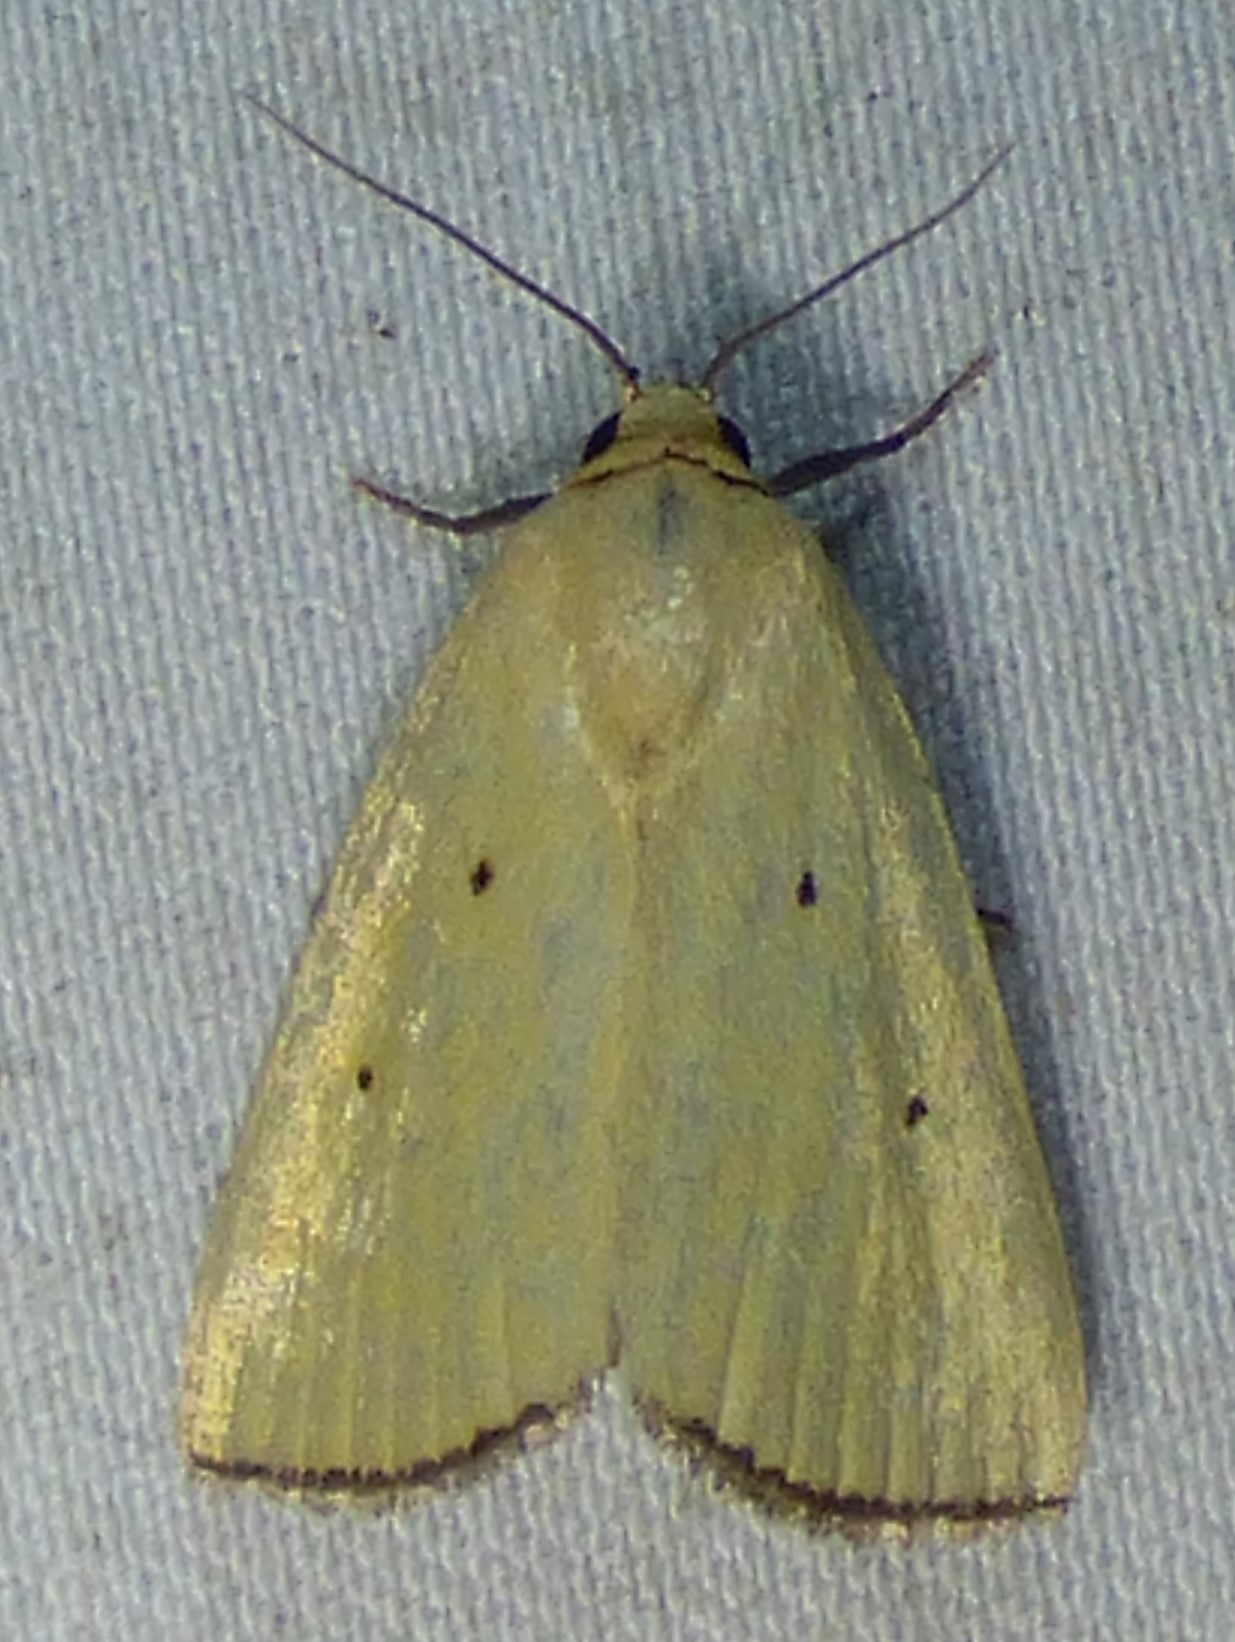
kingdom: Animalia
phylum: Arthropoda
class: Insecta
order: Lepidoptera
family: Noctuidae
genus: Marimatha
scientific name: Marimatha nigrofimbria
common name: Black-bordered lemon moth
